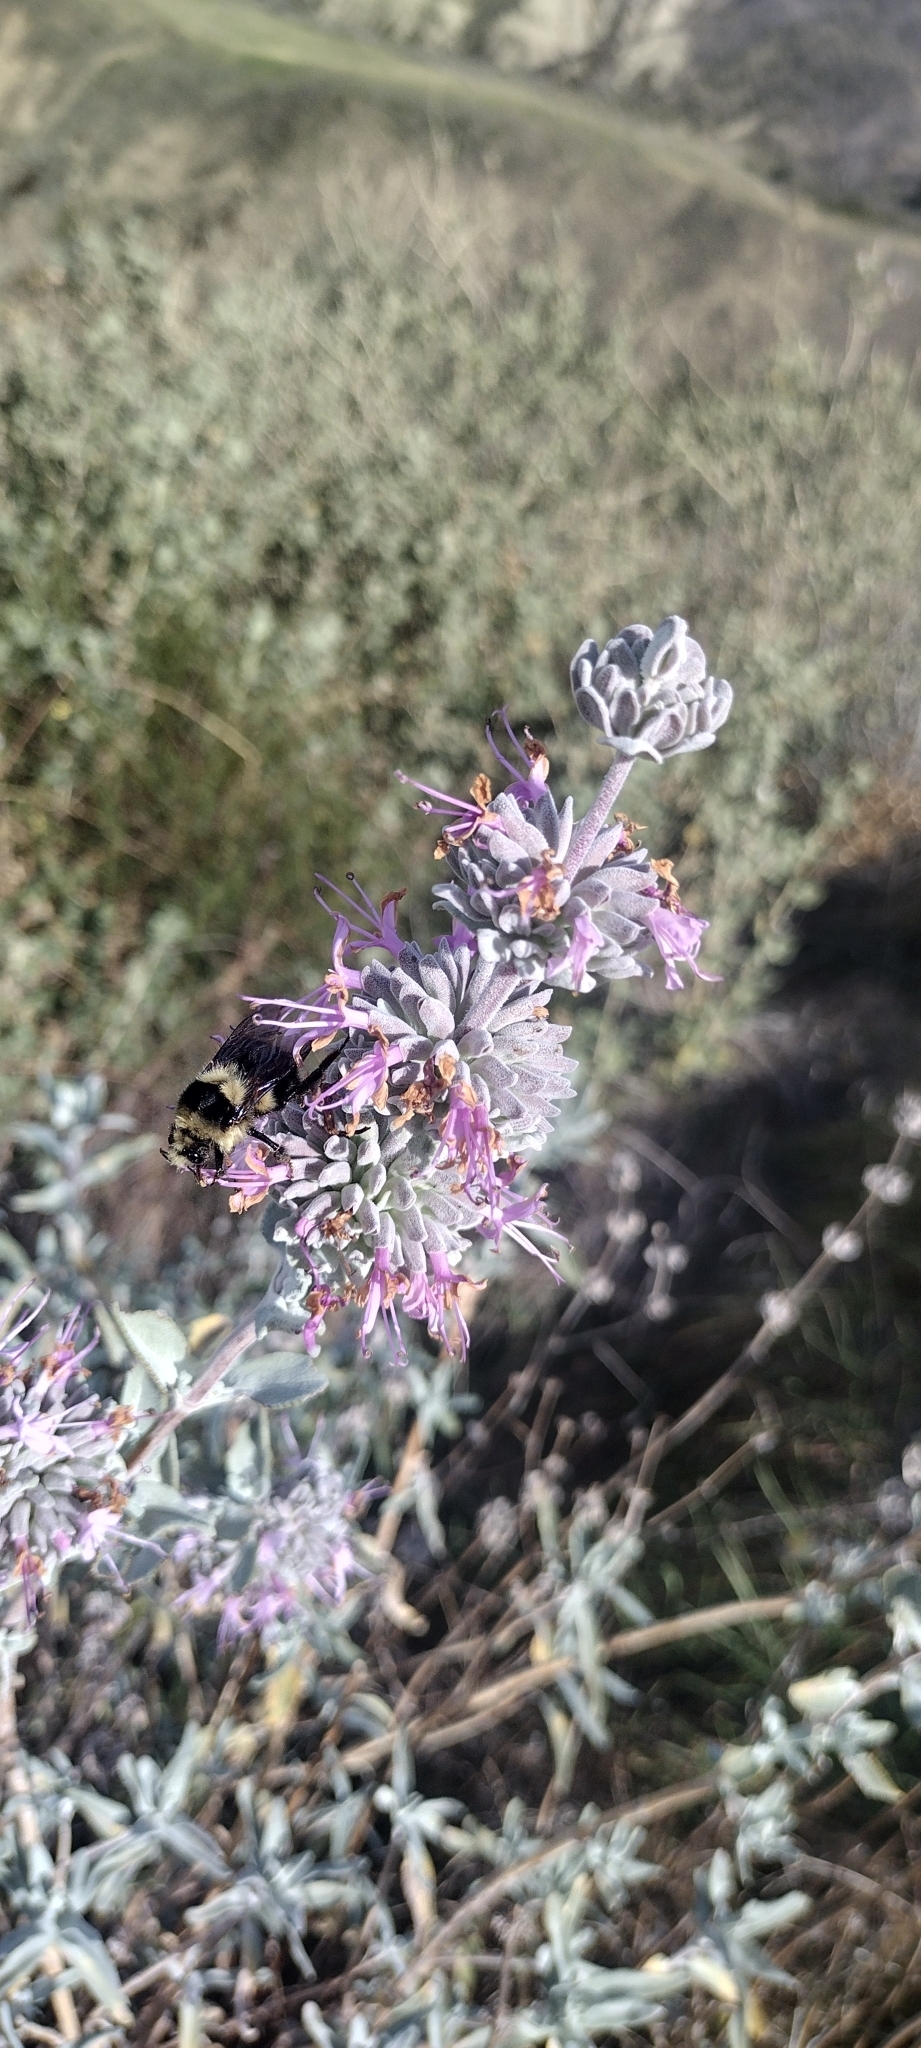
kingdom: Plantae
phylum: Tracheophyta
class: Magnoliopsida
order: Lamiales
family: Lamiaceae
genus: Salvia
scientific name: Salvia leucophylla
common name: Purple sage
